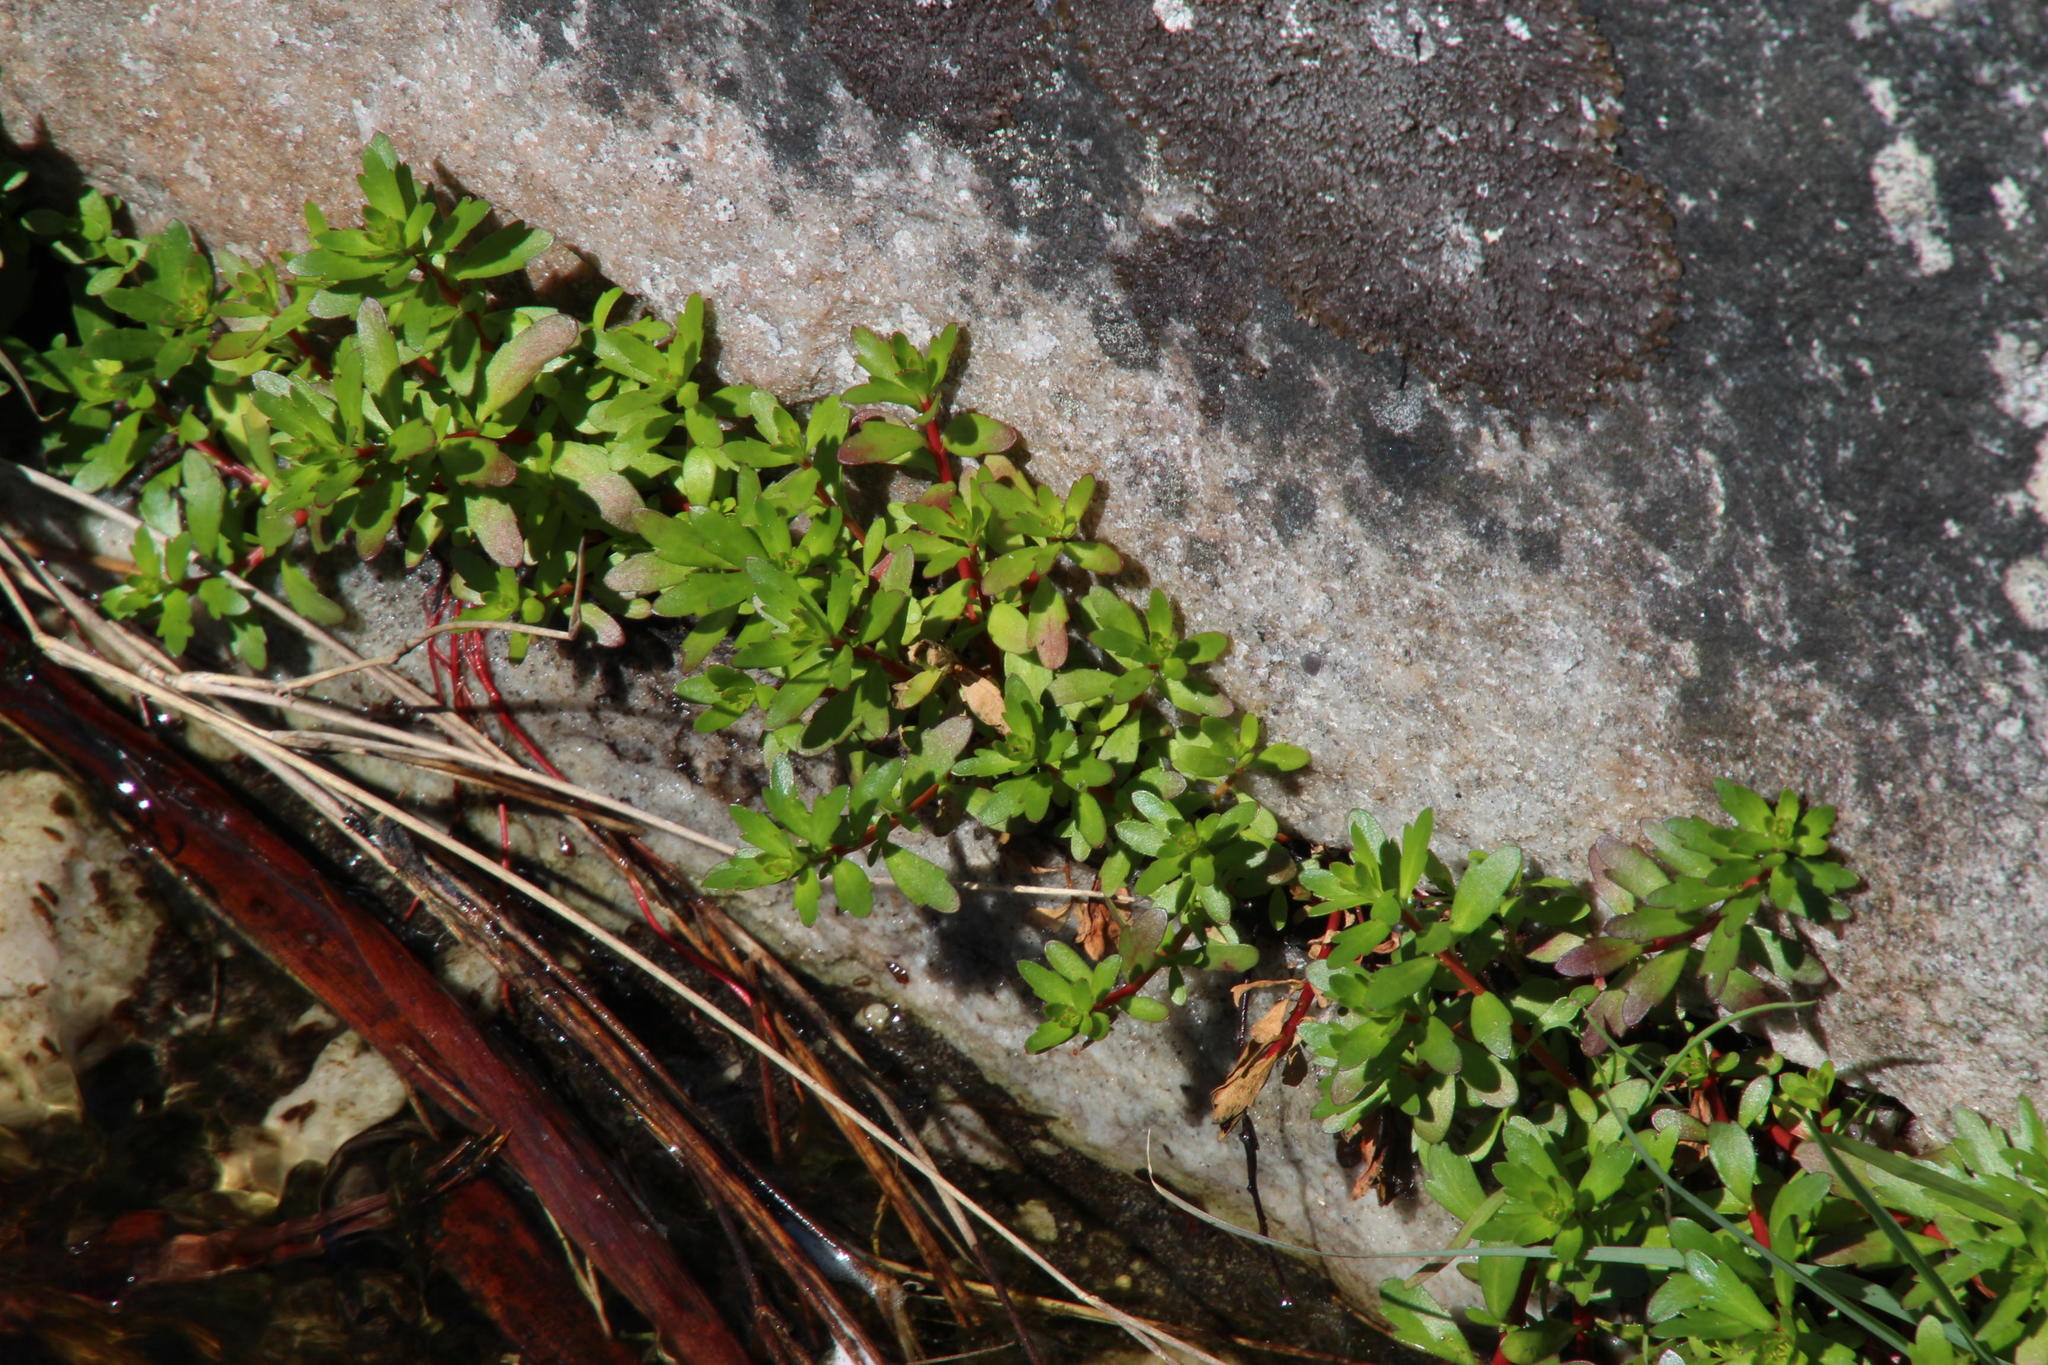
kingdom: Plantae
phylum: Tracheophyta
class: Magnoliopsida
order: Saxifragales
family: Haloragaceae
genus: Laurembergia
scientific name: Laurembergia repens
